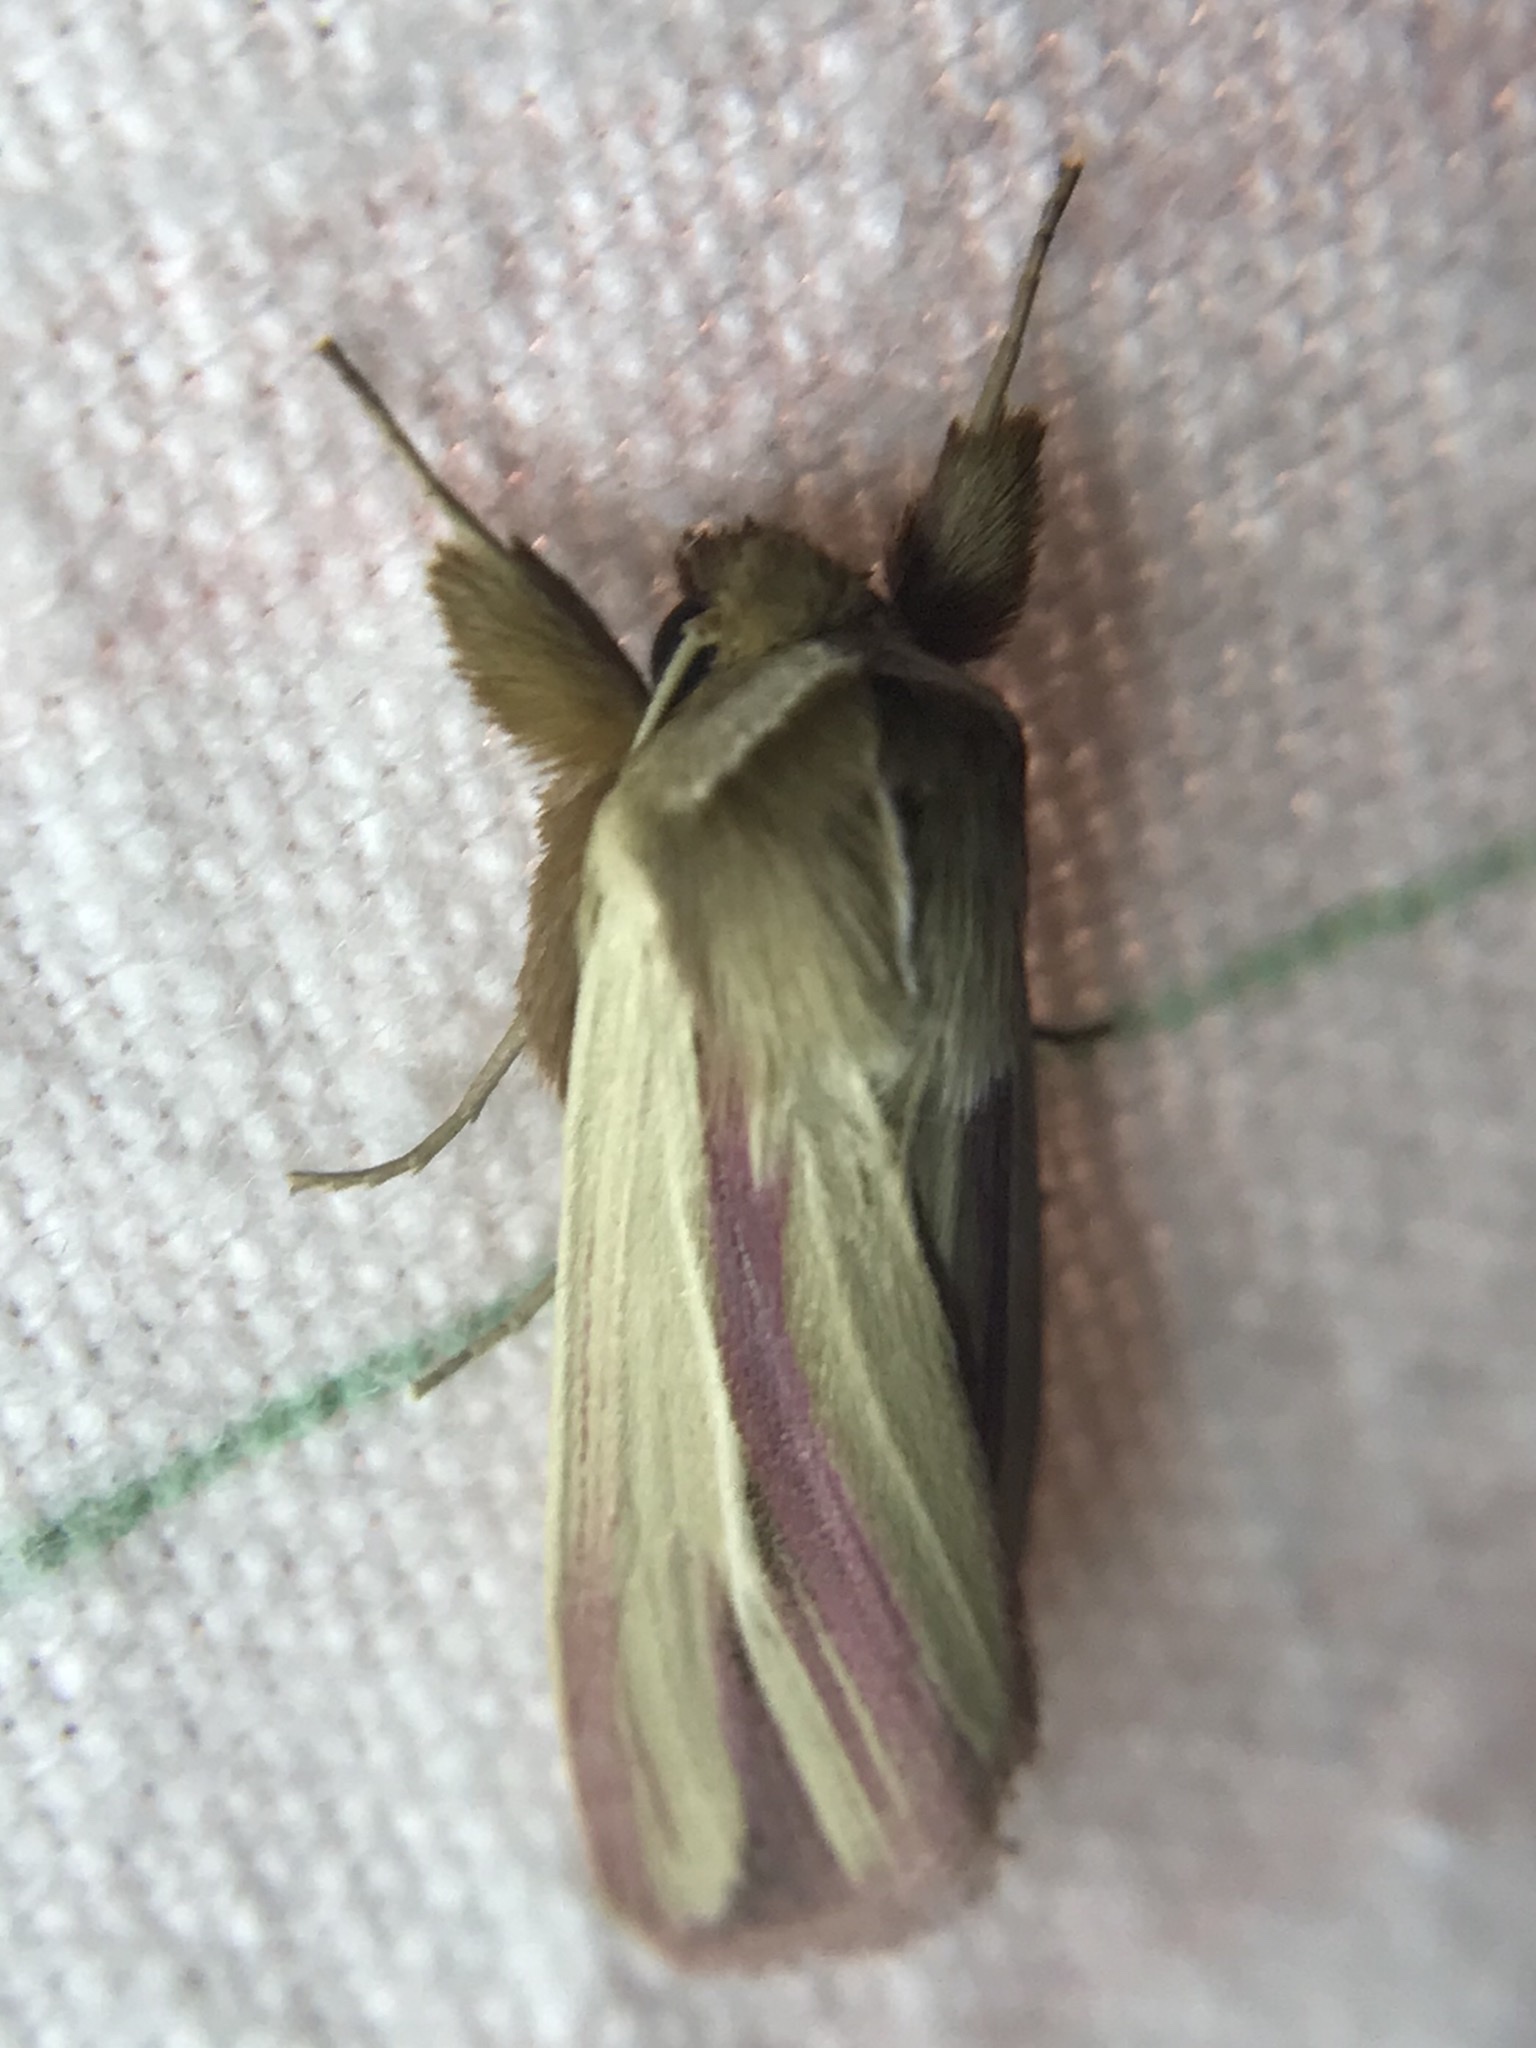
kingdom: Animalia
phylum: Arthropoda
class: Insecta
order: Lepidoptera
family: Noctuidae
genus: Dargida
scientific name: Dargida rubripennis
